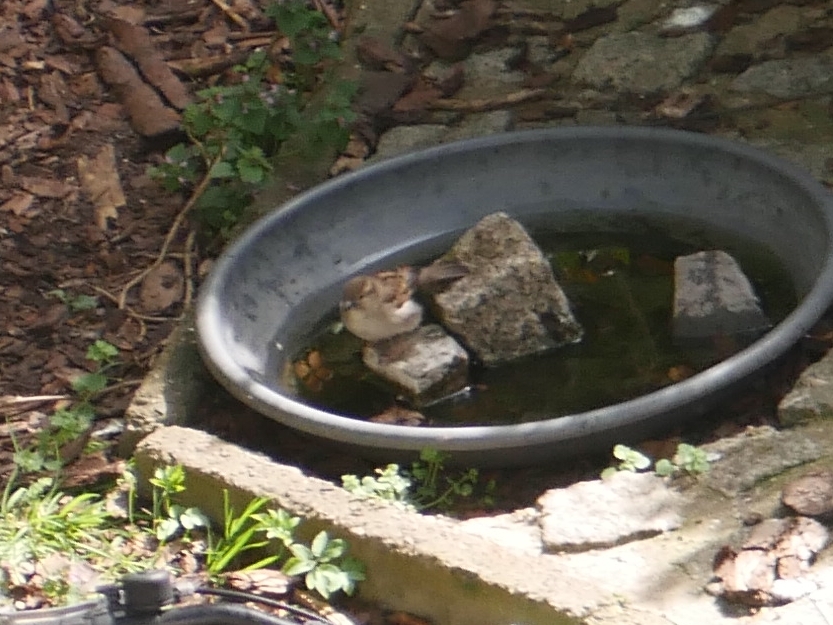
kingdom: Animalia
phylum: Chordata
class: Aves
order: Passeriformes
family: Passeridae
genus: Passer
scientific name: Passer domesticus
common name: House sparrow
